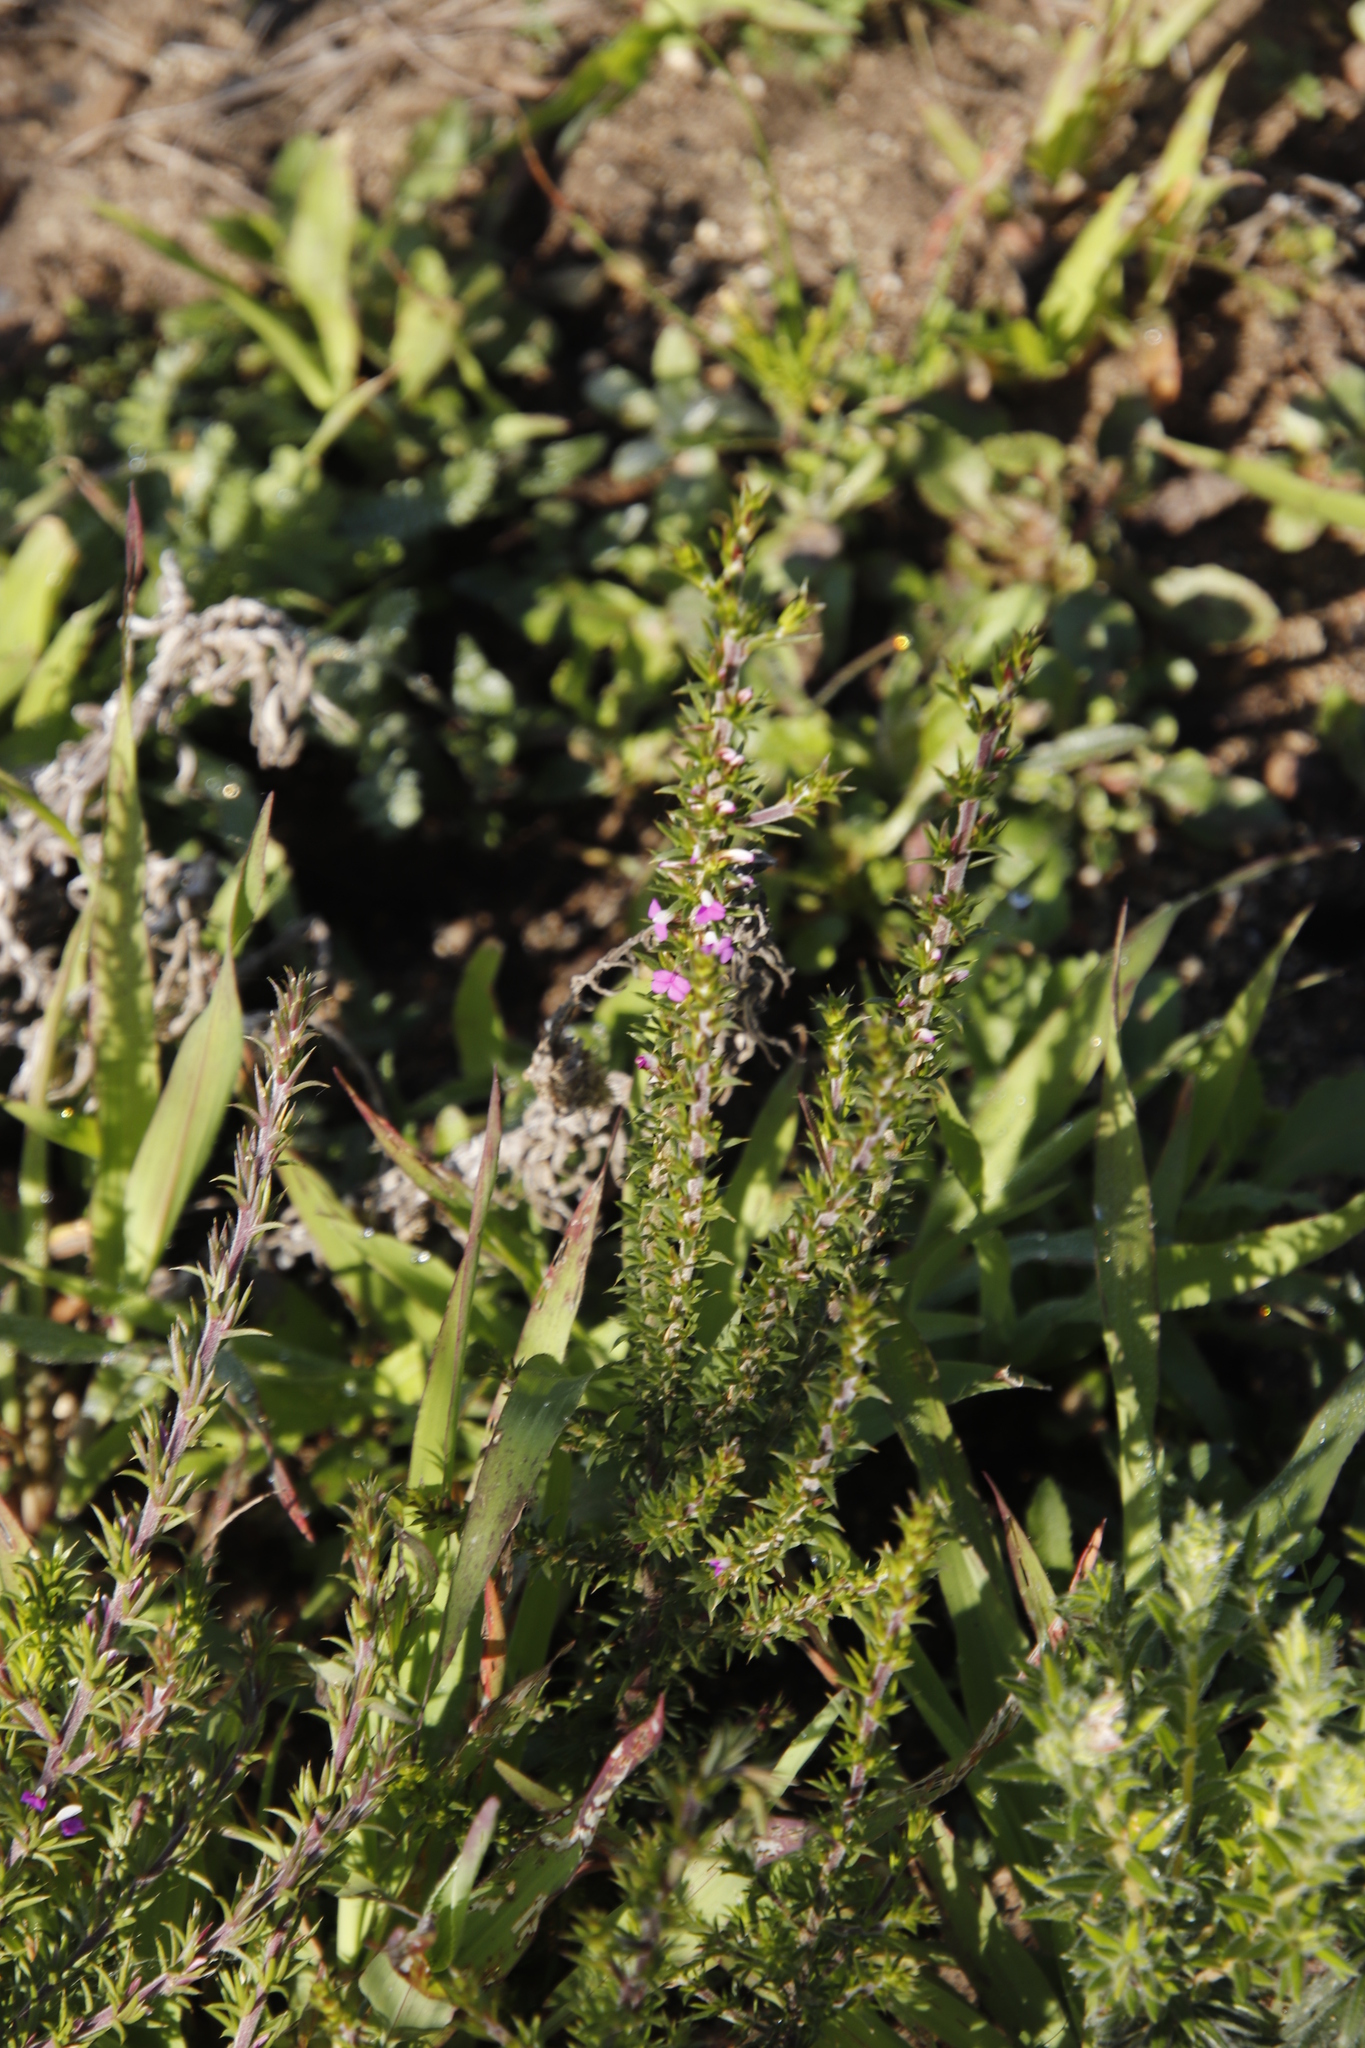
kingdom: Plantae
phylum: Tracheophyta
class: Magnoliopsida
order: Fabales
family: Polygalaceae
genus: Muraltia
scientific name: Muraltia heisteria
